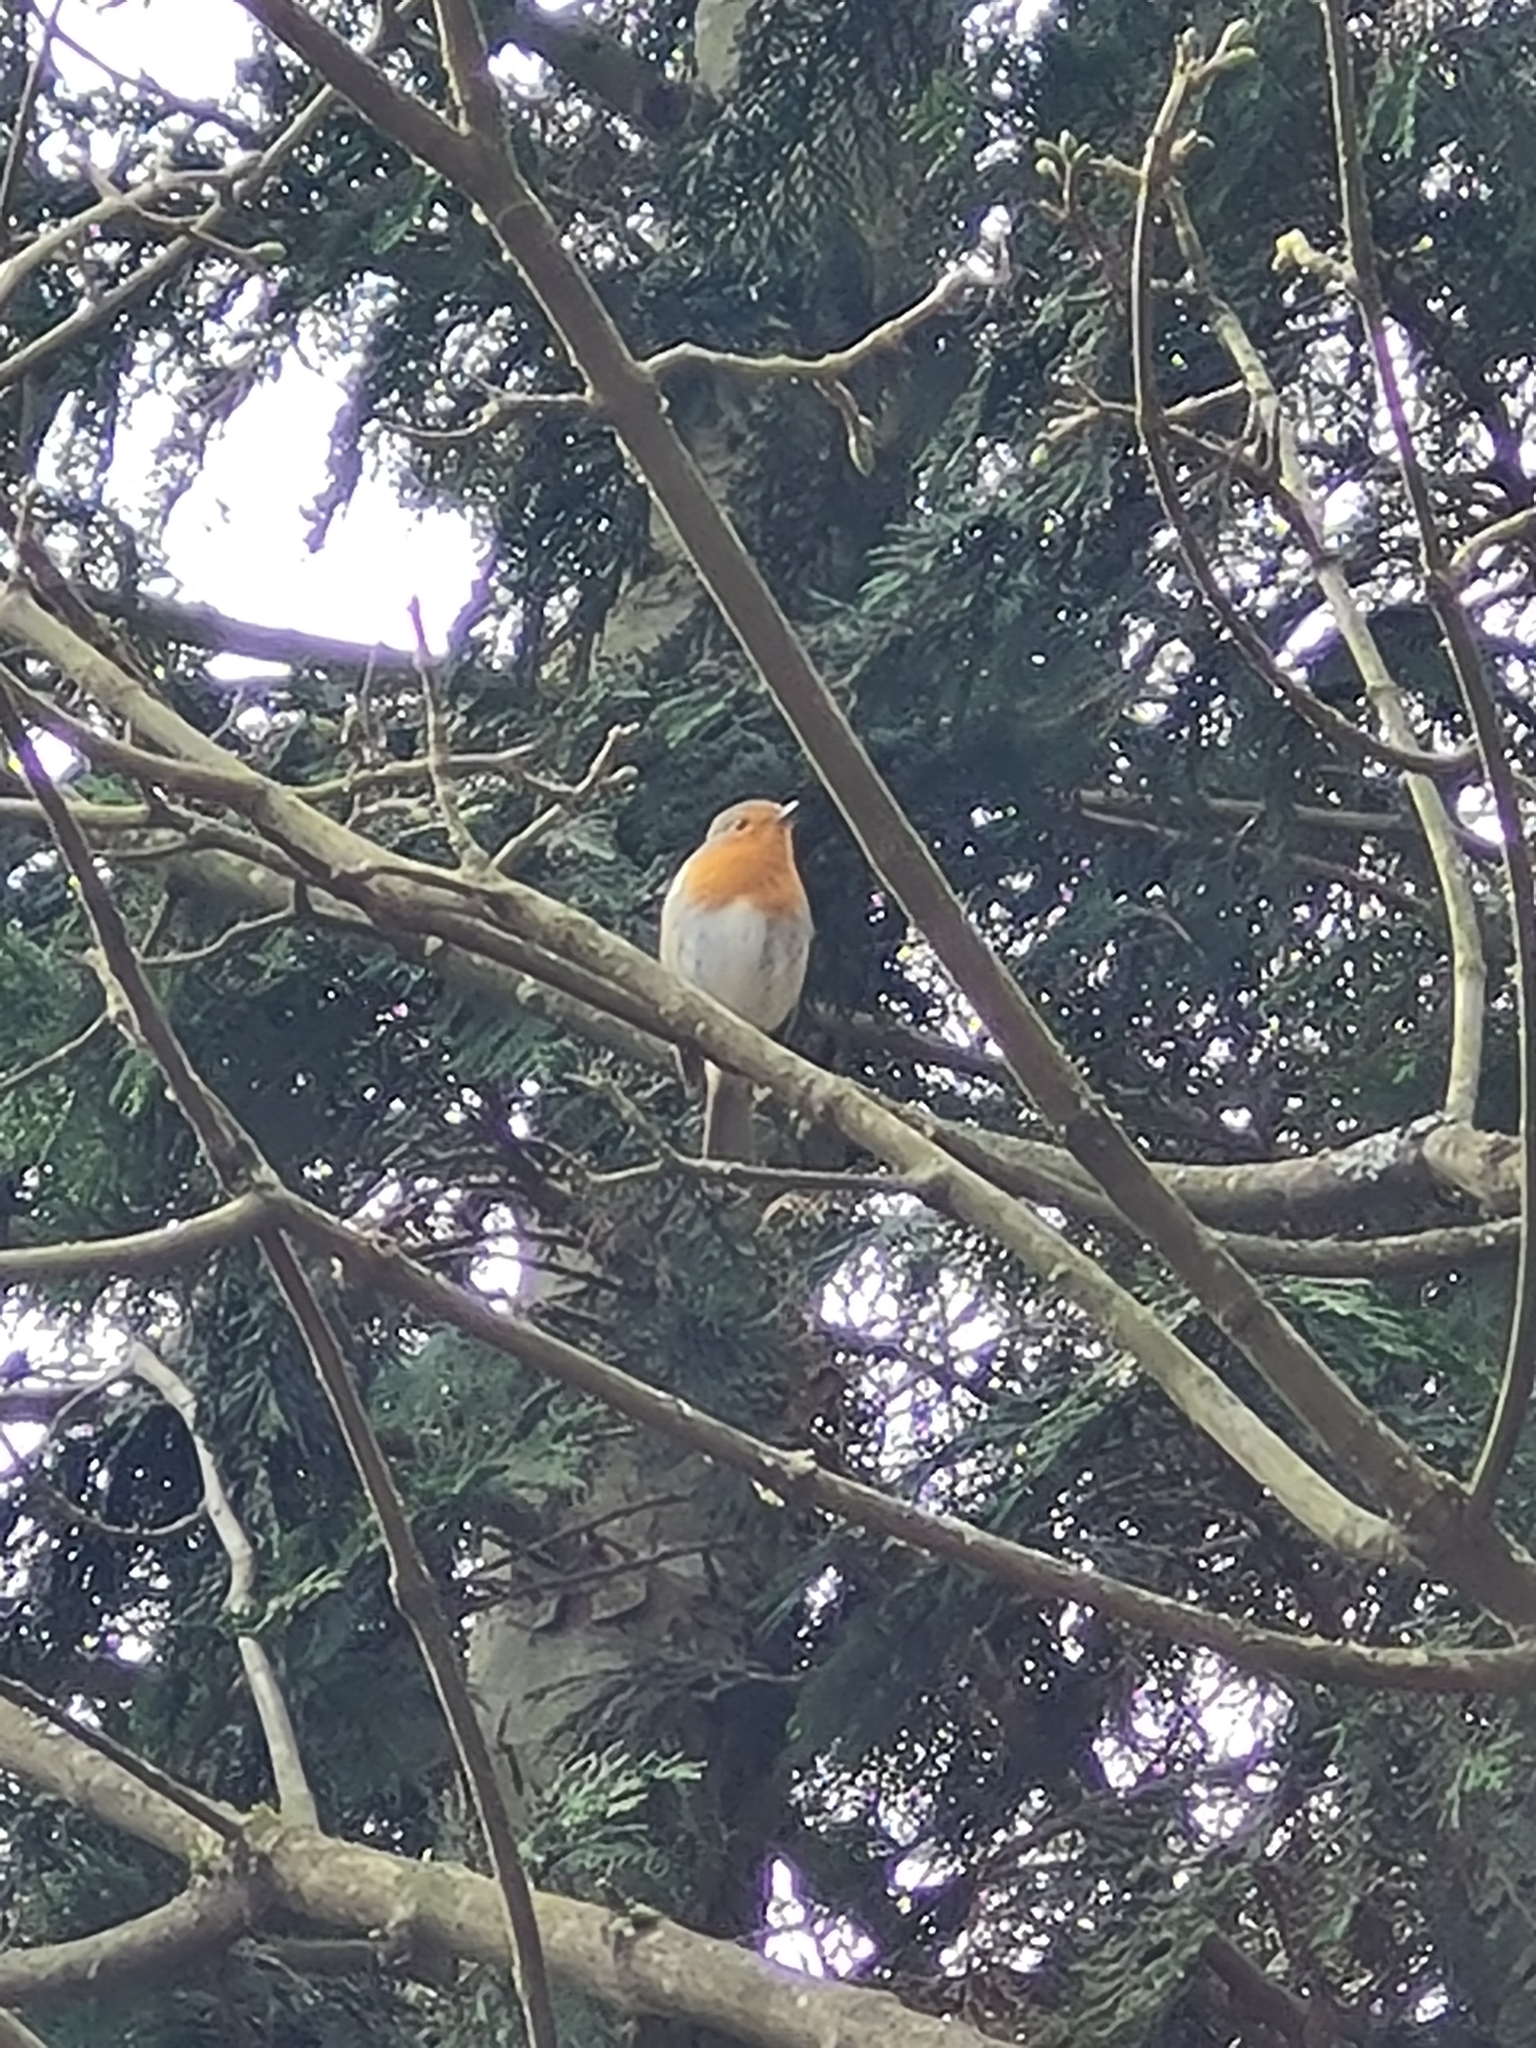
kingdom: Animalia
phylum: Chordata
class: Aves
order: Passeriformes
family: Muscicapidae
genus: Erithacus
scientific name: Erithacus rubecula
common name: European robin
